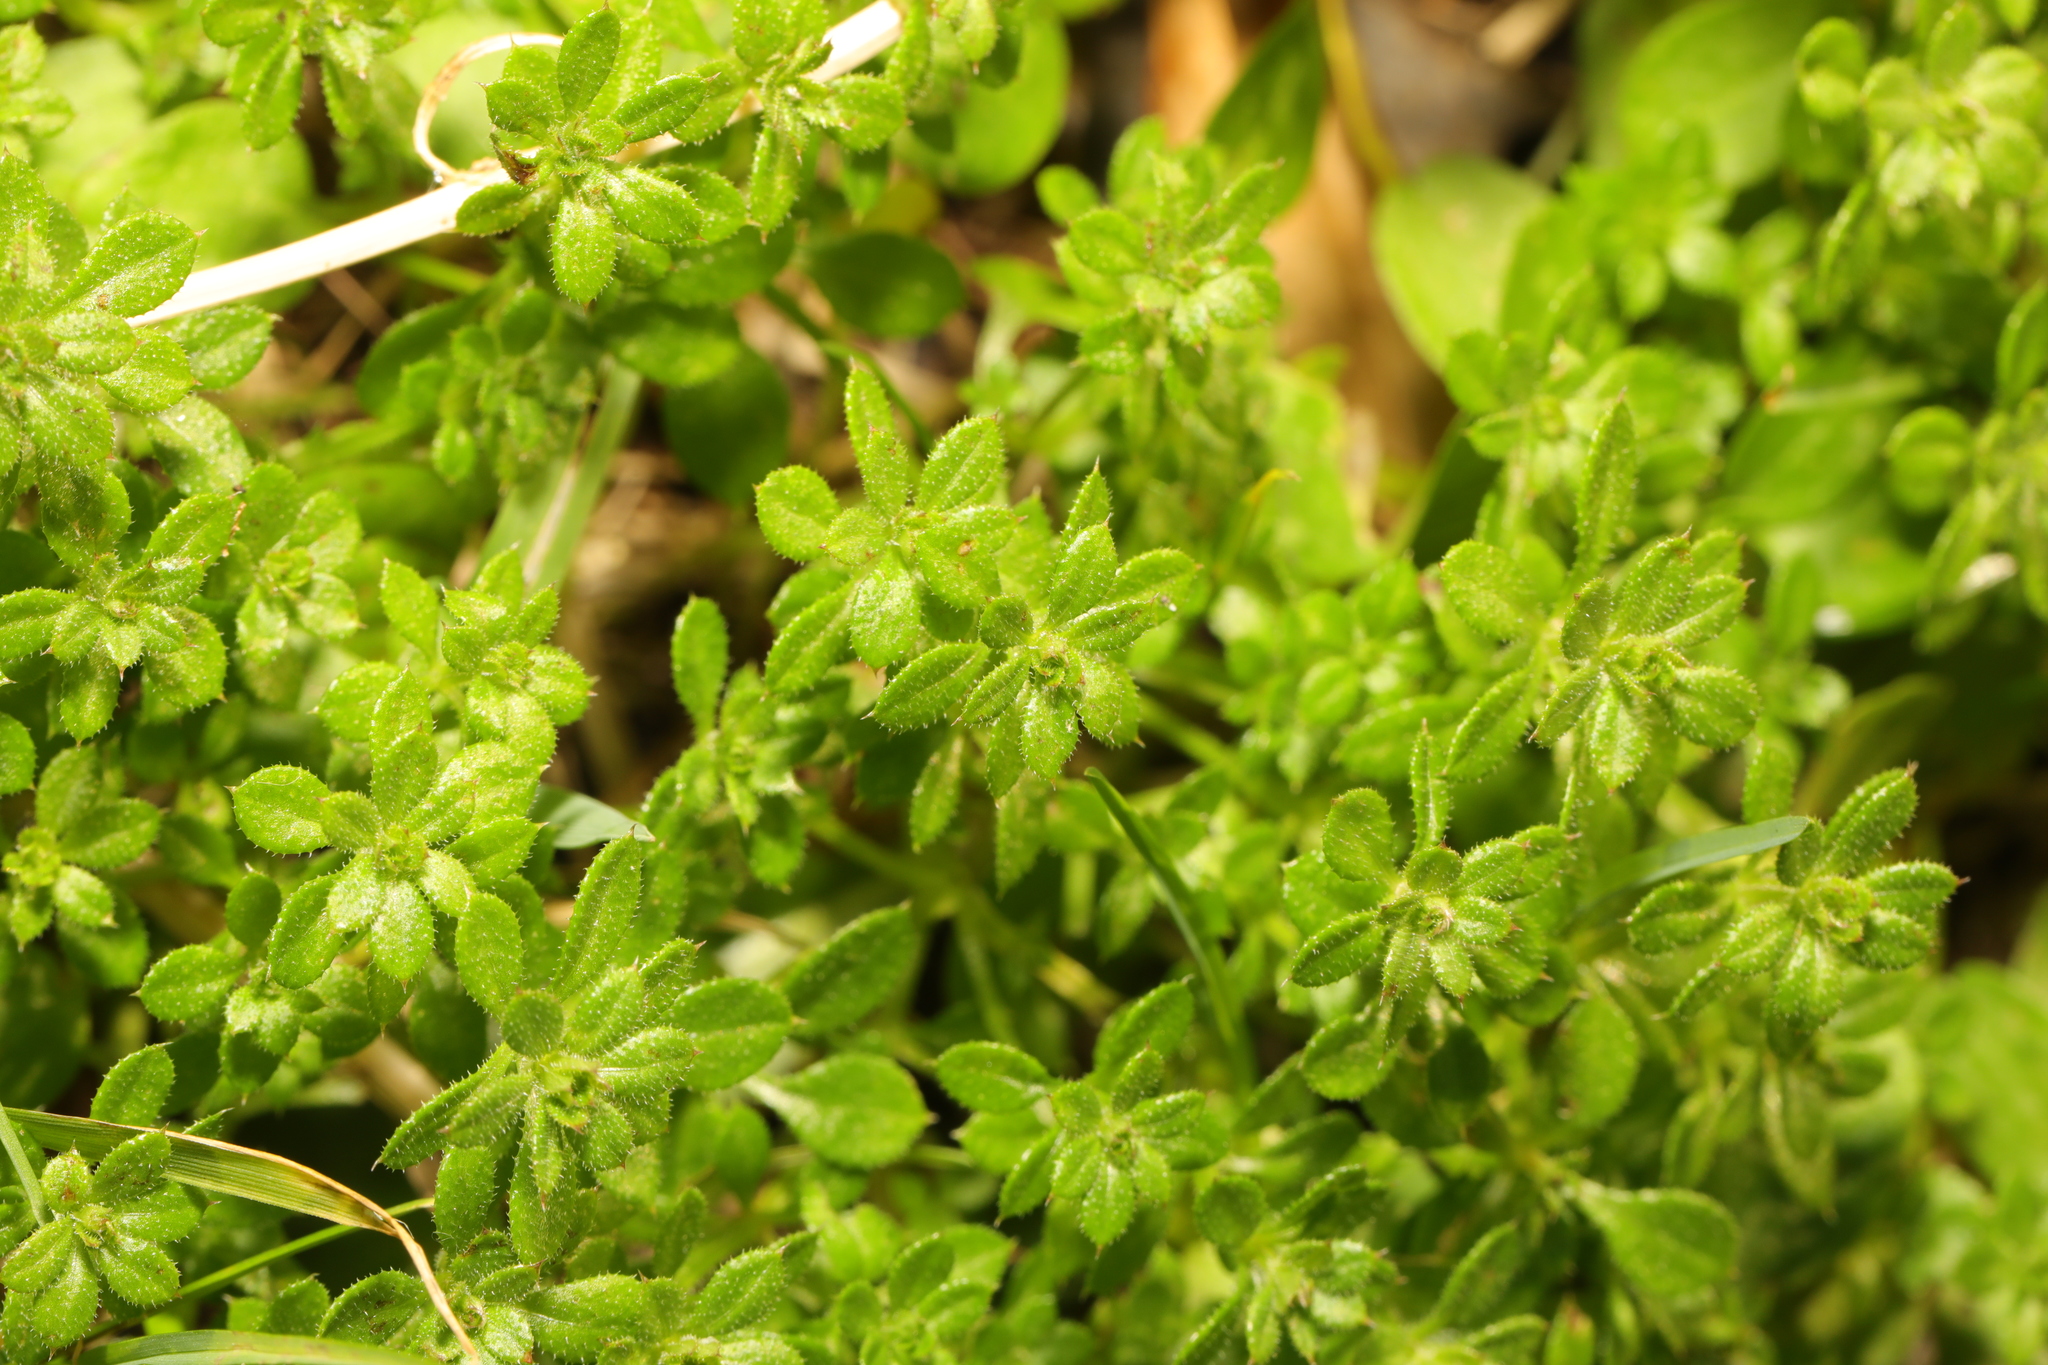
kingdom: Plantae
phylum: Tracheophyta
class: Magnoliopsida
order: Gentianales
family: Rubiaceae
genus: Galium
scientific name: Galium aparine
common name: Cleavers
